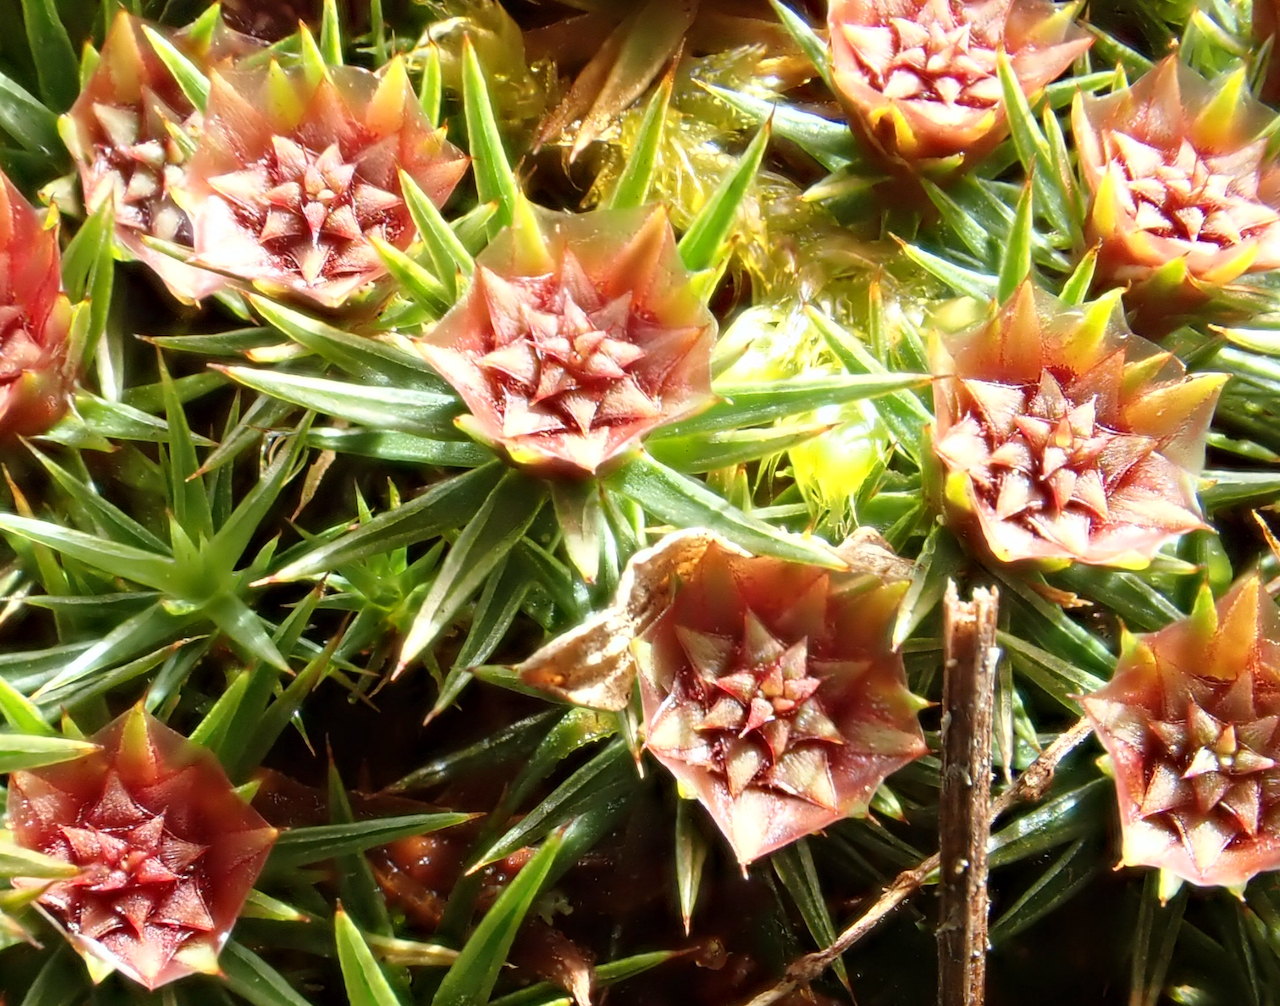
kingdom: Plantae
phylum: Bryophyta
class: Polytrichopsida
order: Polytrichales
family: Polytrichaceae
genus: Polytrichum
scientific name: Polytrichum juniperinum
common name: Juniper haircap moss
